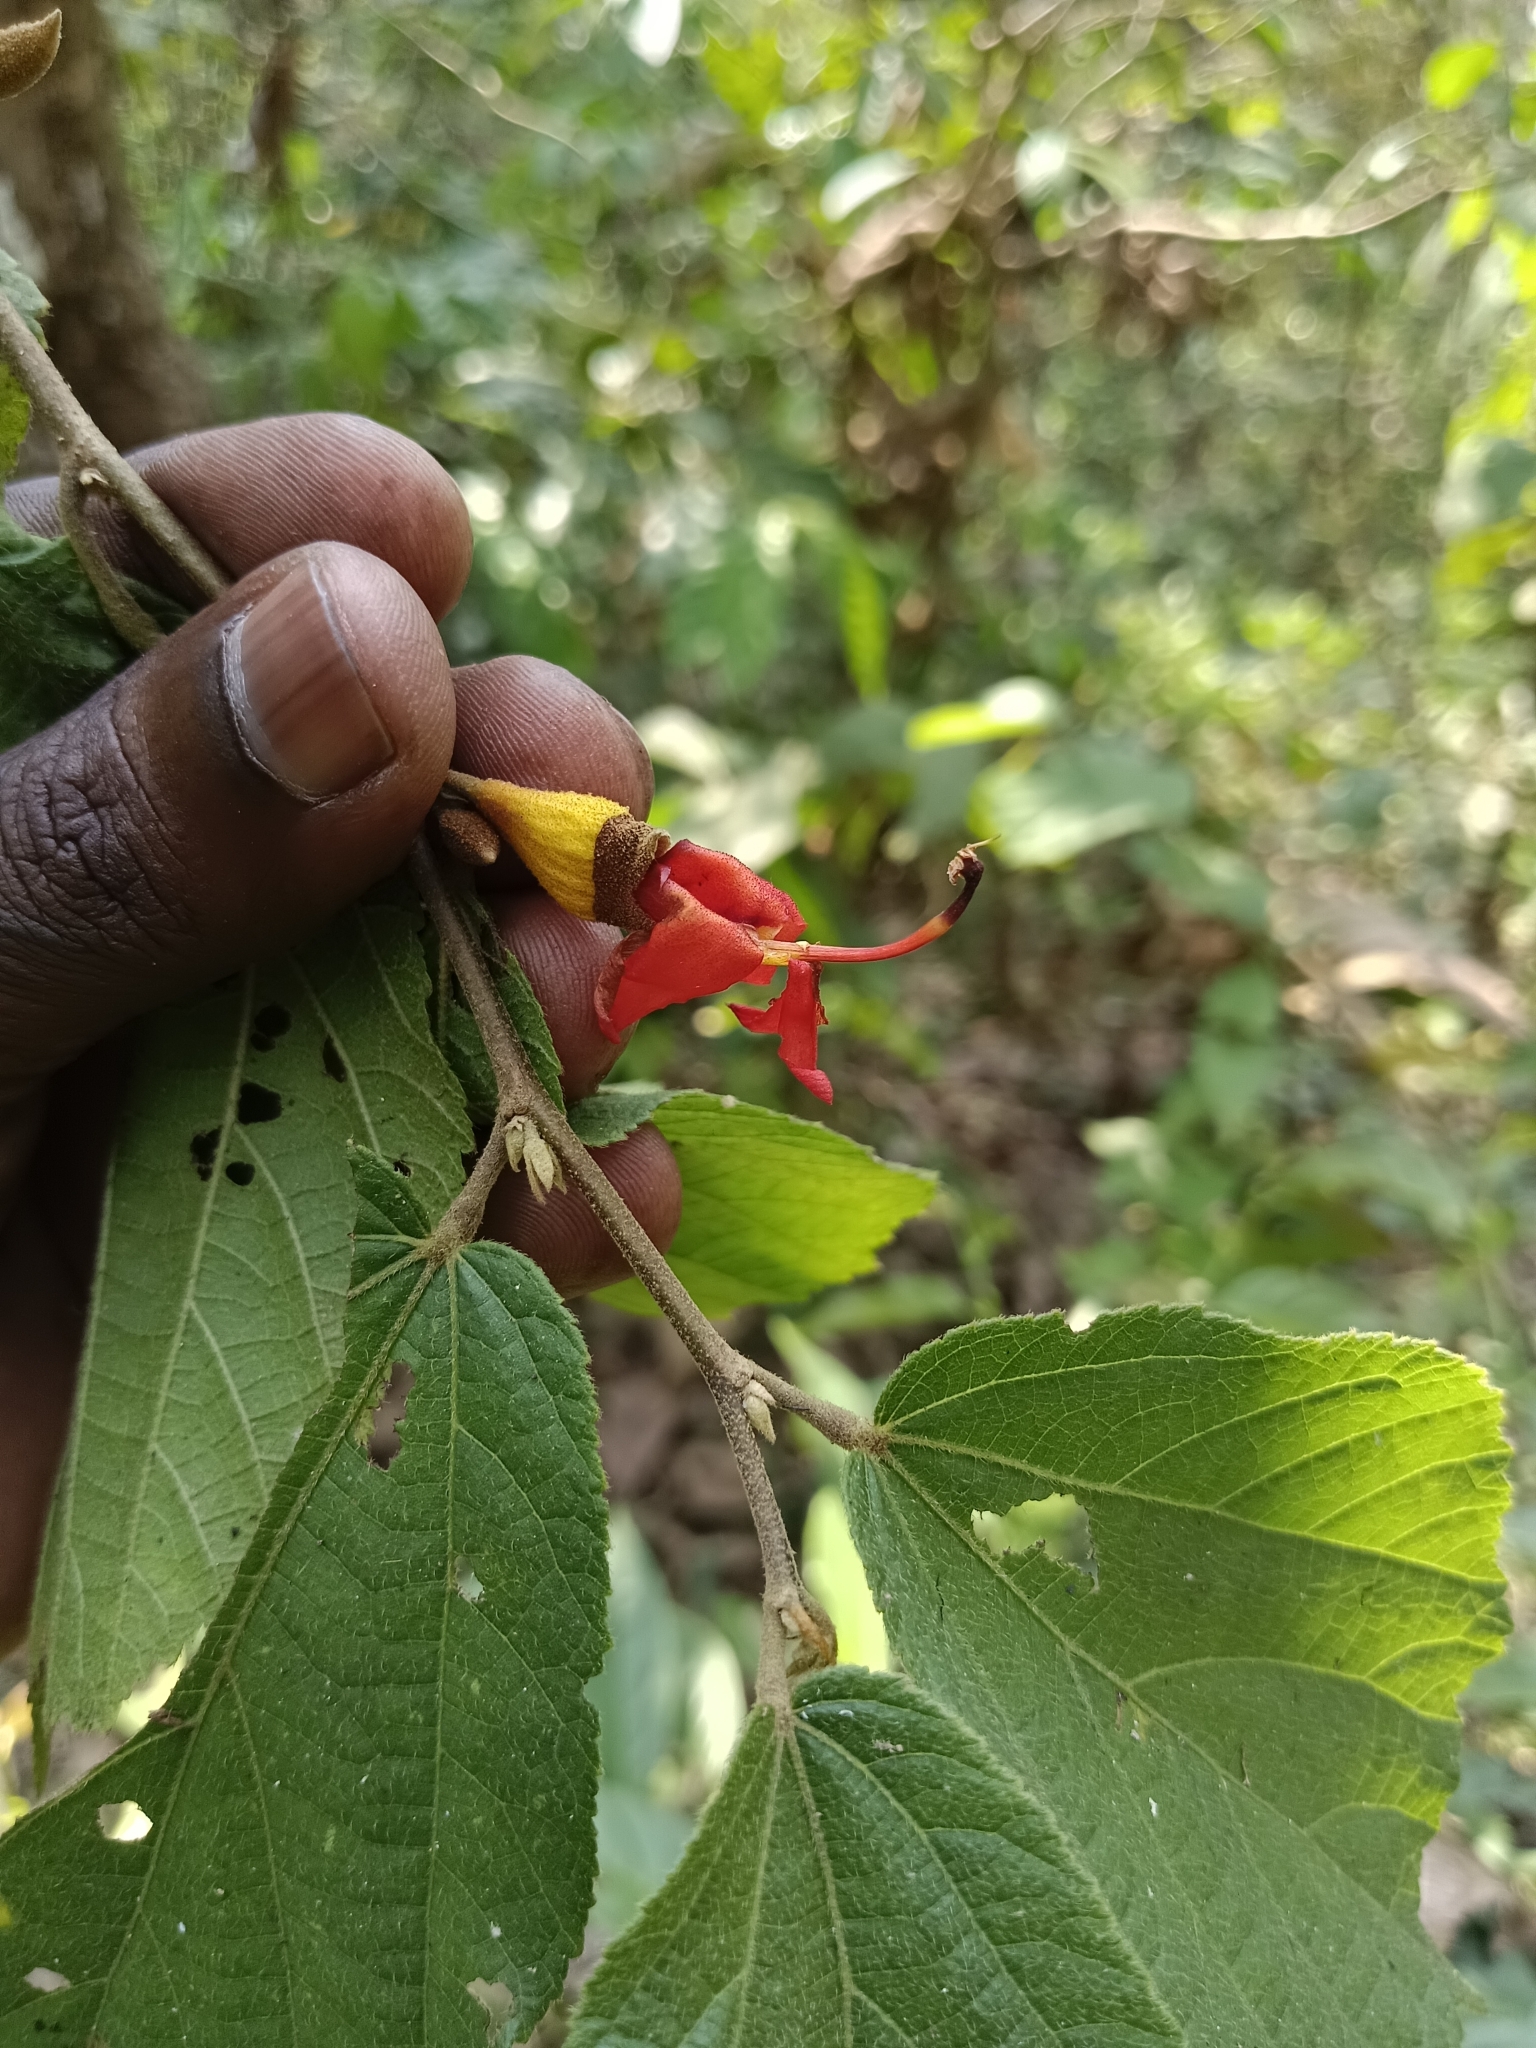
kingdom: Plantae
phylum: Tracheophyta
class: Magnoliopsida
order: Malvales
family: Malvaceae
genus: Helicteres
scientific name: Helicteres isora
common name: East indian screwtree
